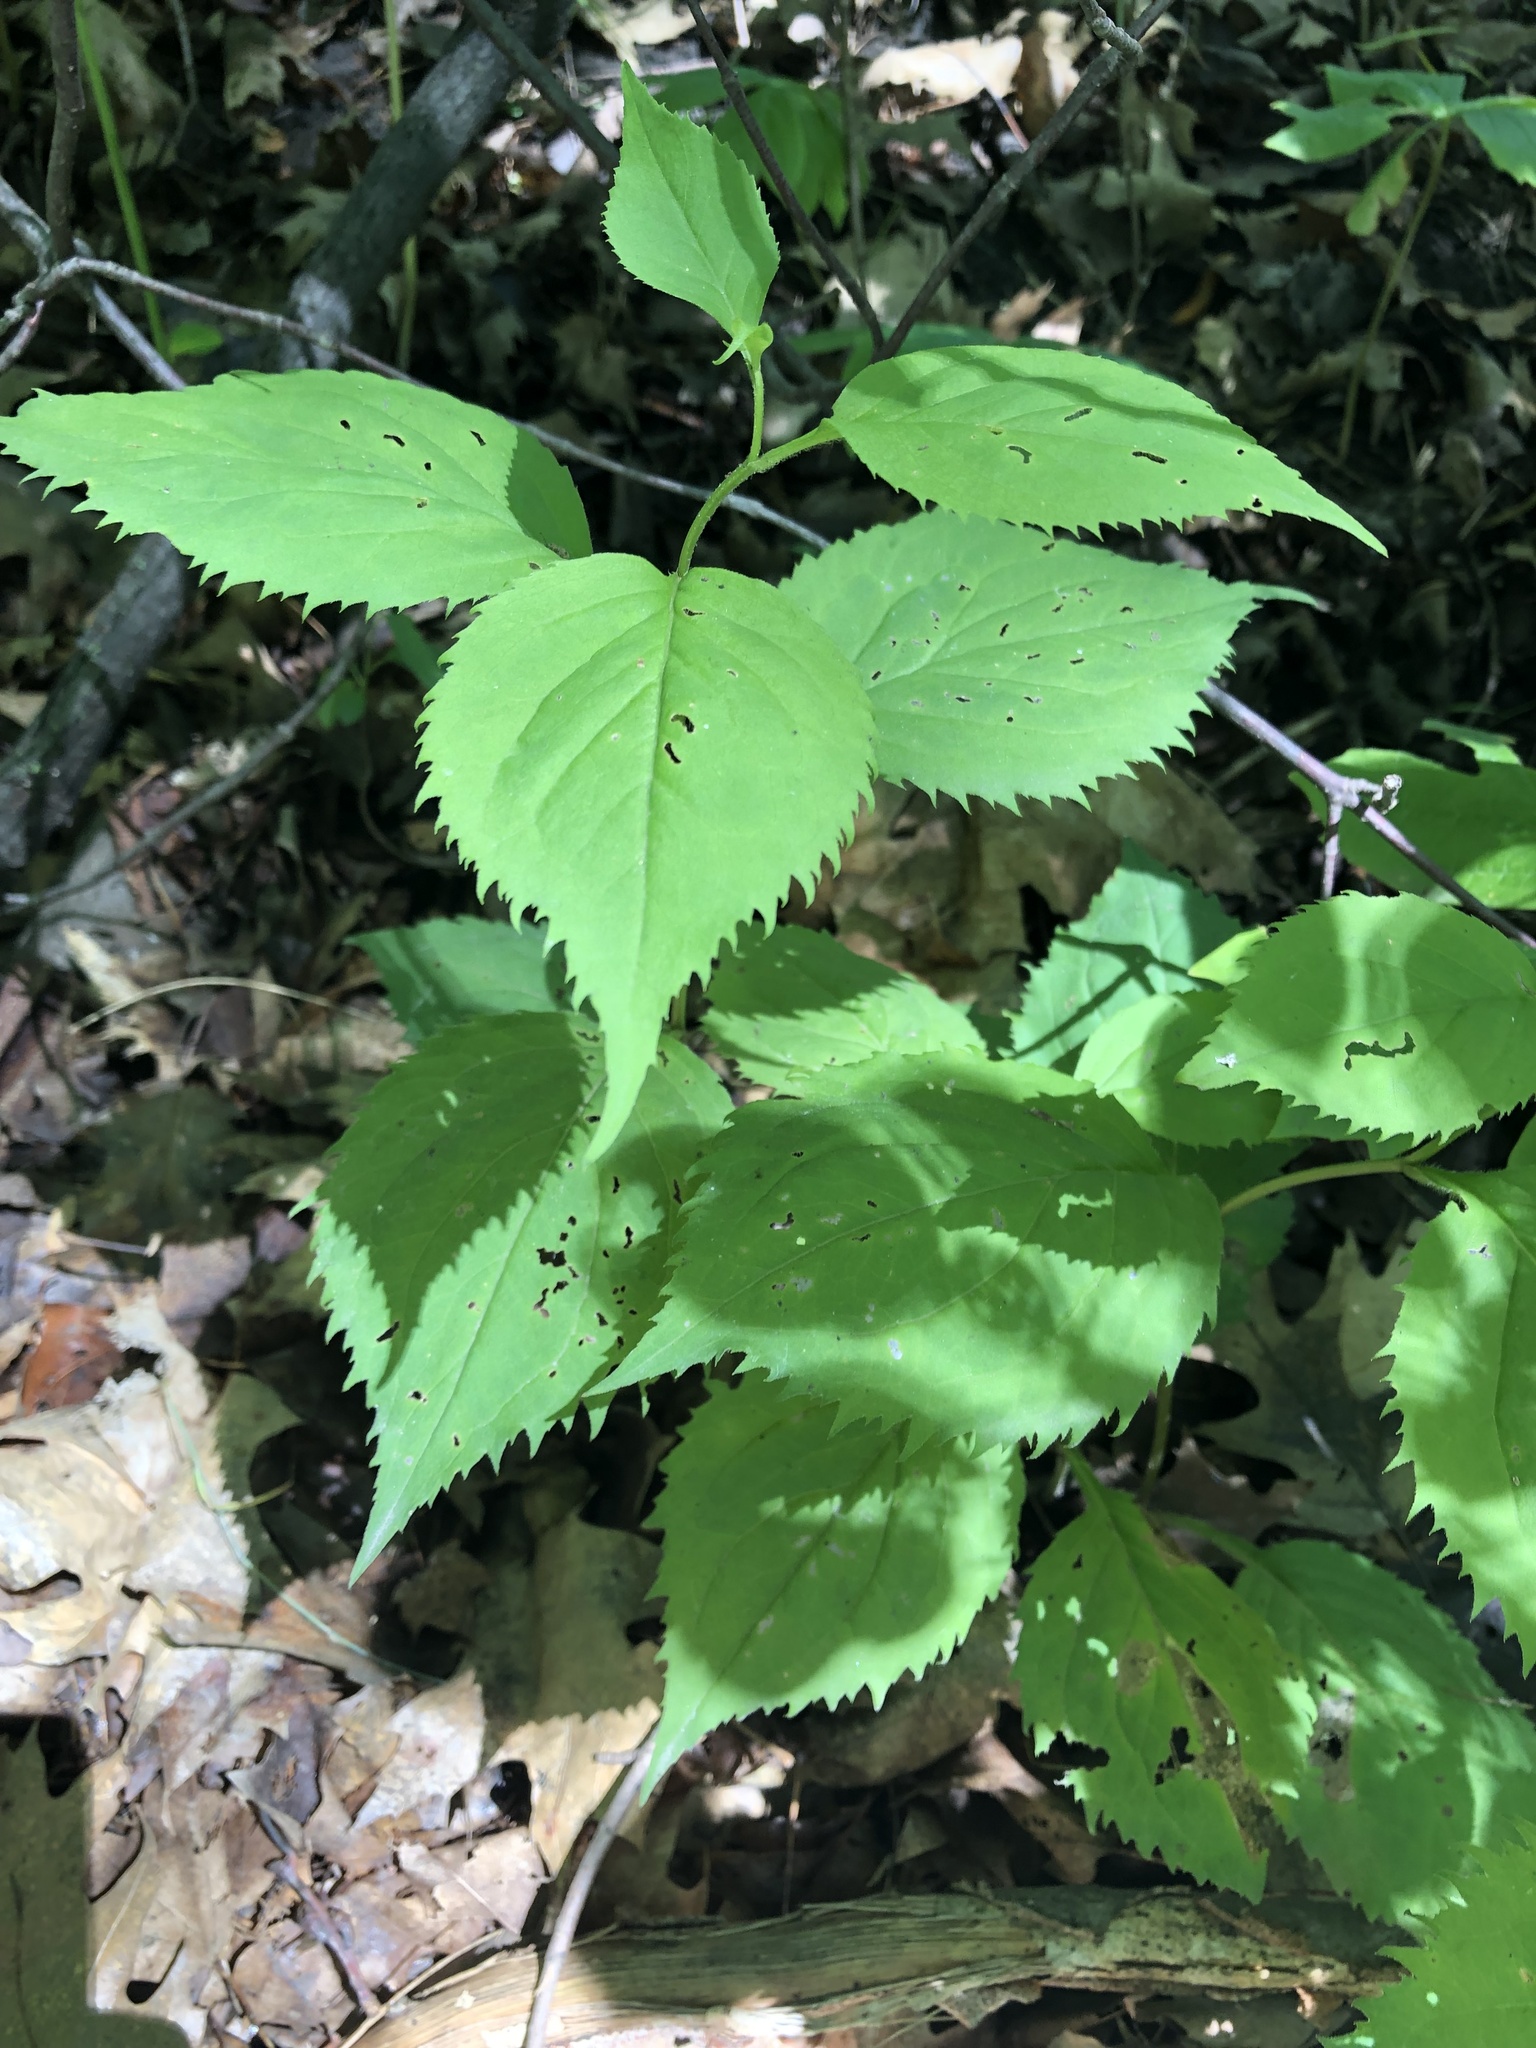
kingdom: Plantae
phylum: Tracheophyta
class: Magnoliopsida
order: Asterales
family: Asteraceae
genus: Solidago
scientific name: Solidago flexicaulis
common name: Zig-zag goldenrod
